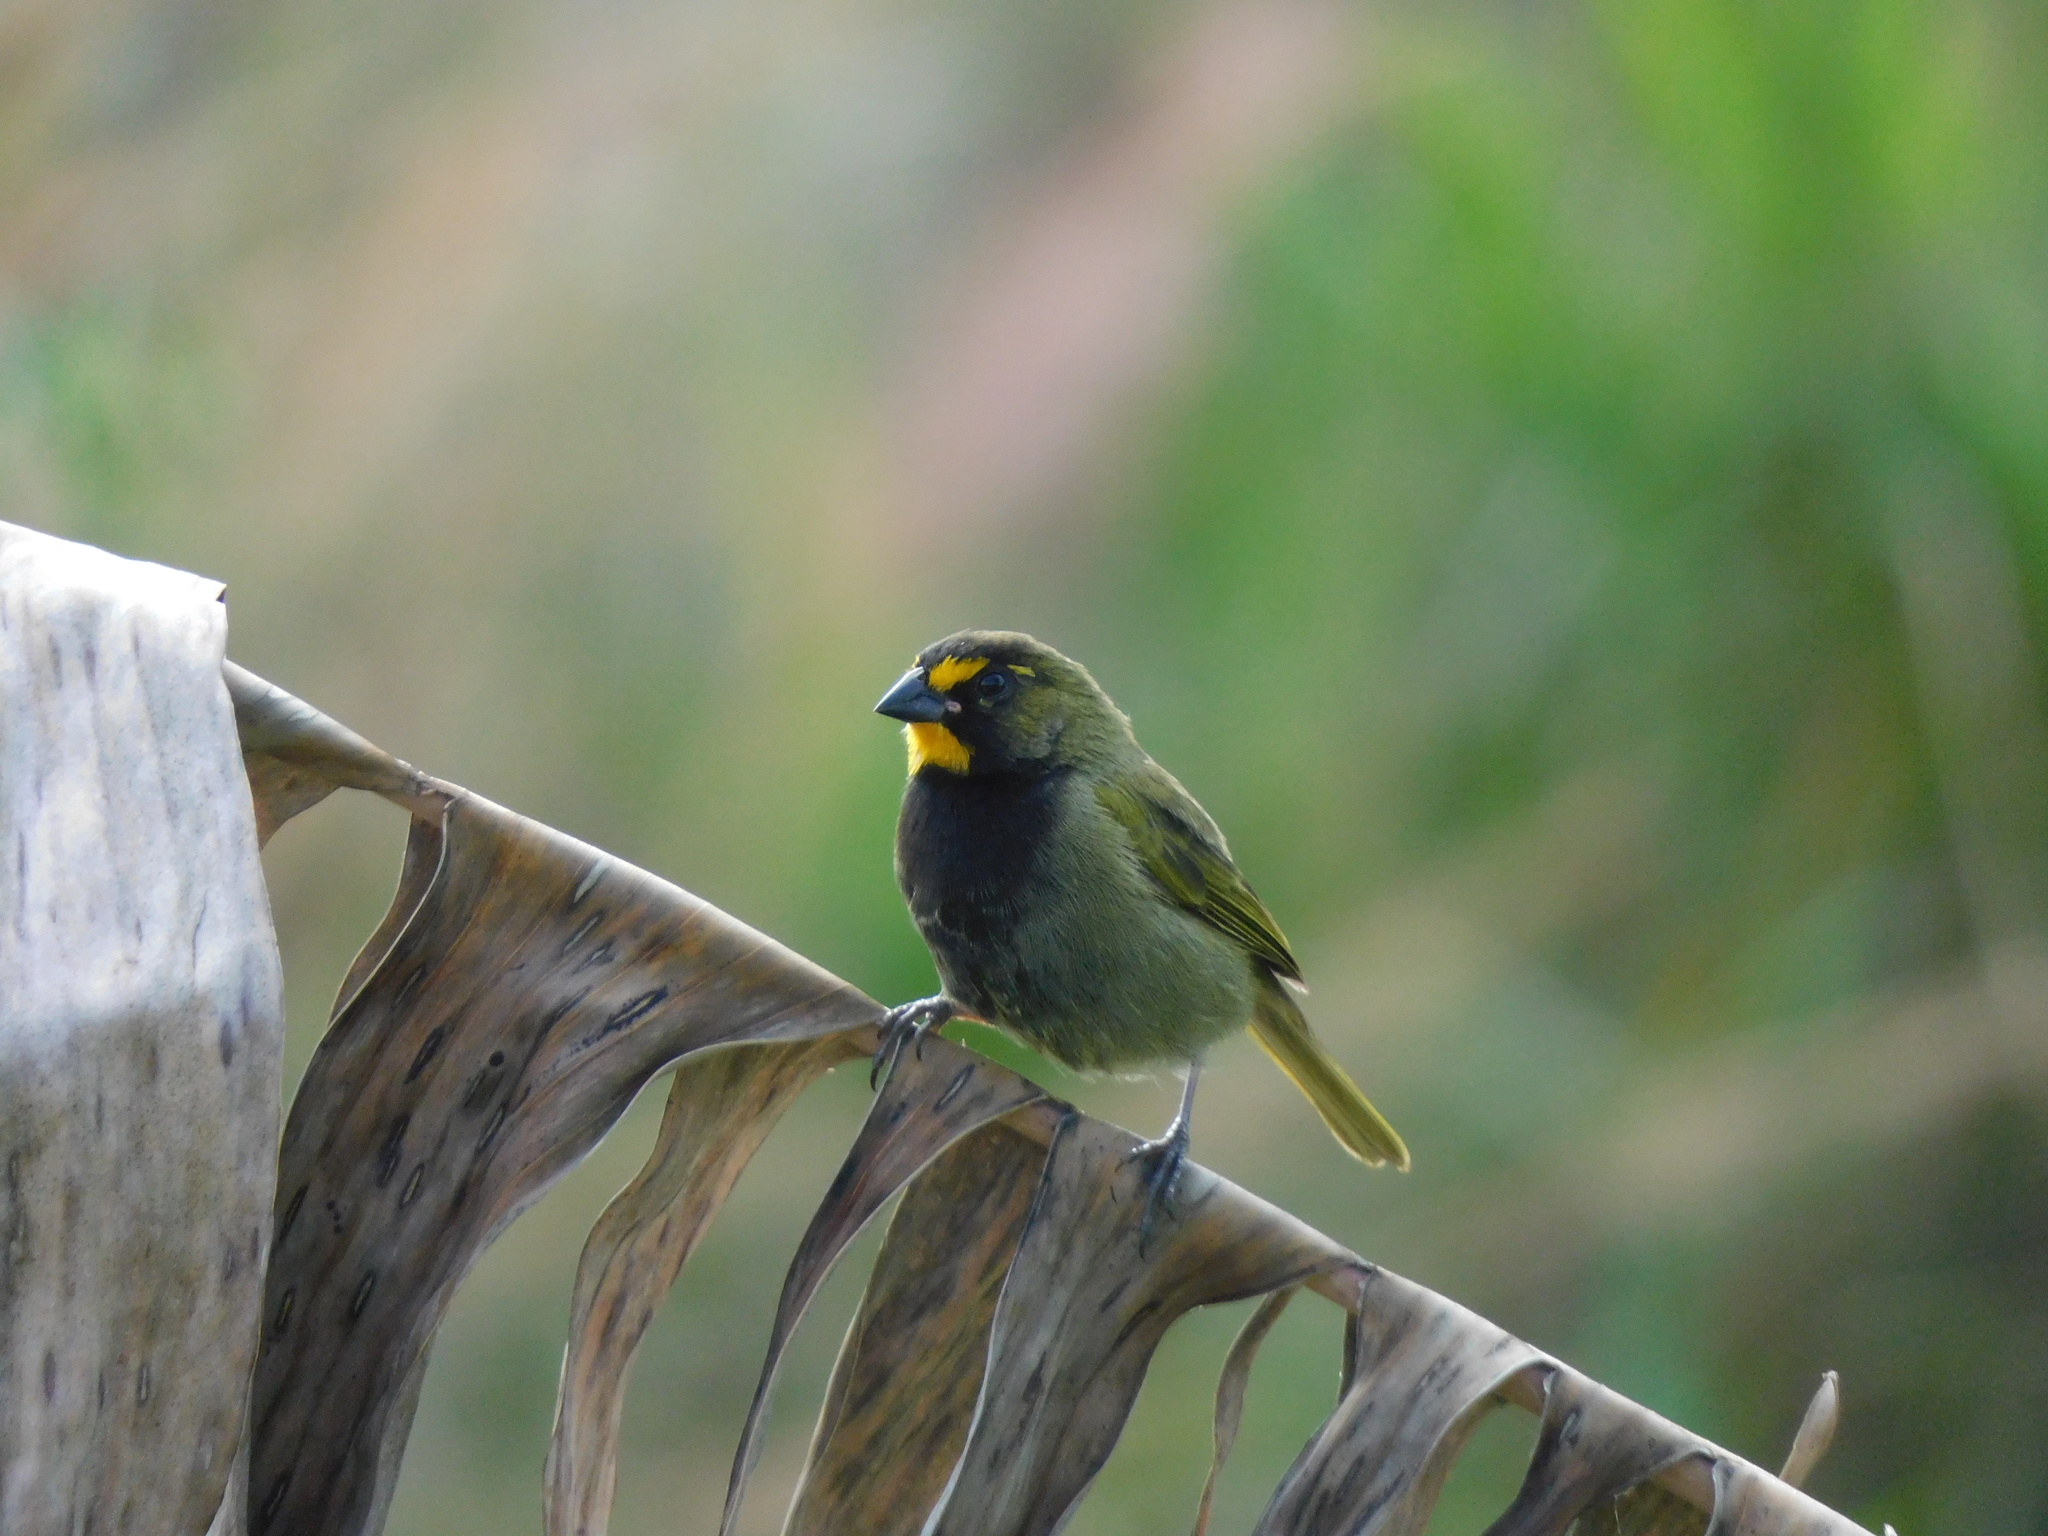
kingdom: Animalia
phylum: Chordata
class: Aves
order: Passeriformes
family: Thraupidae
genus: Tiaris
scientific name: Tiaris olivaceus
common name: Yellow-faced grassquit
